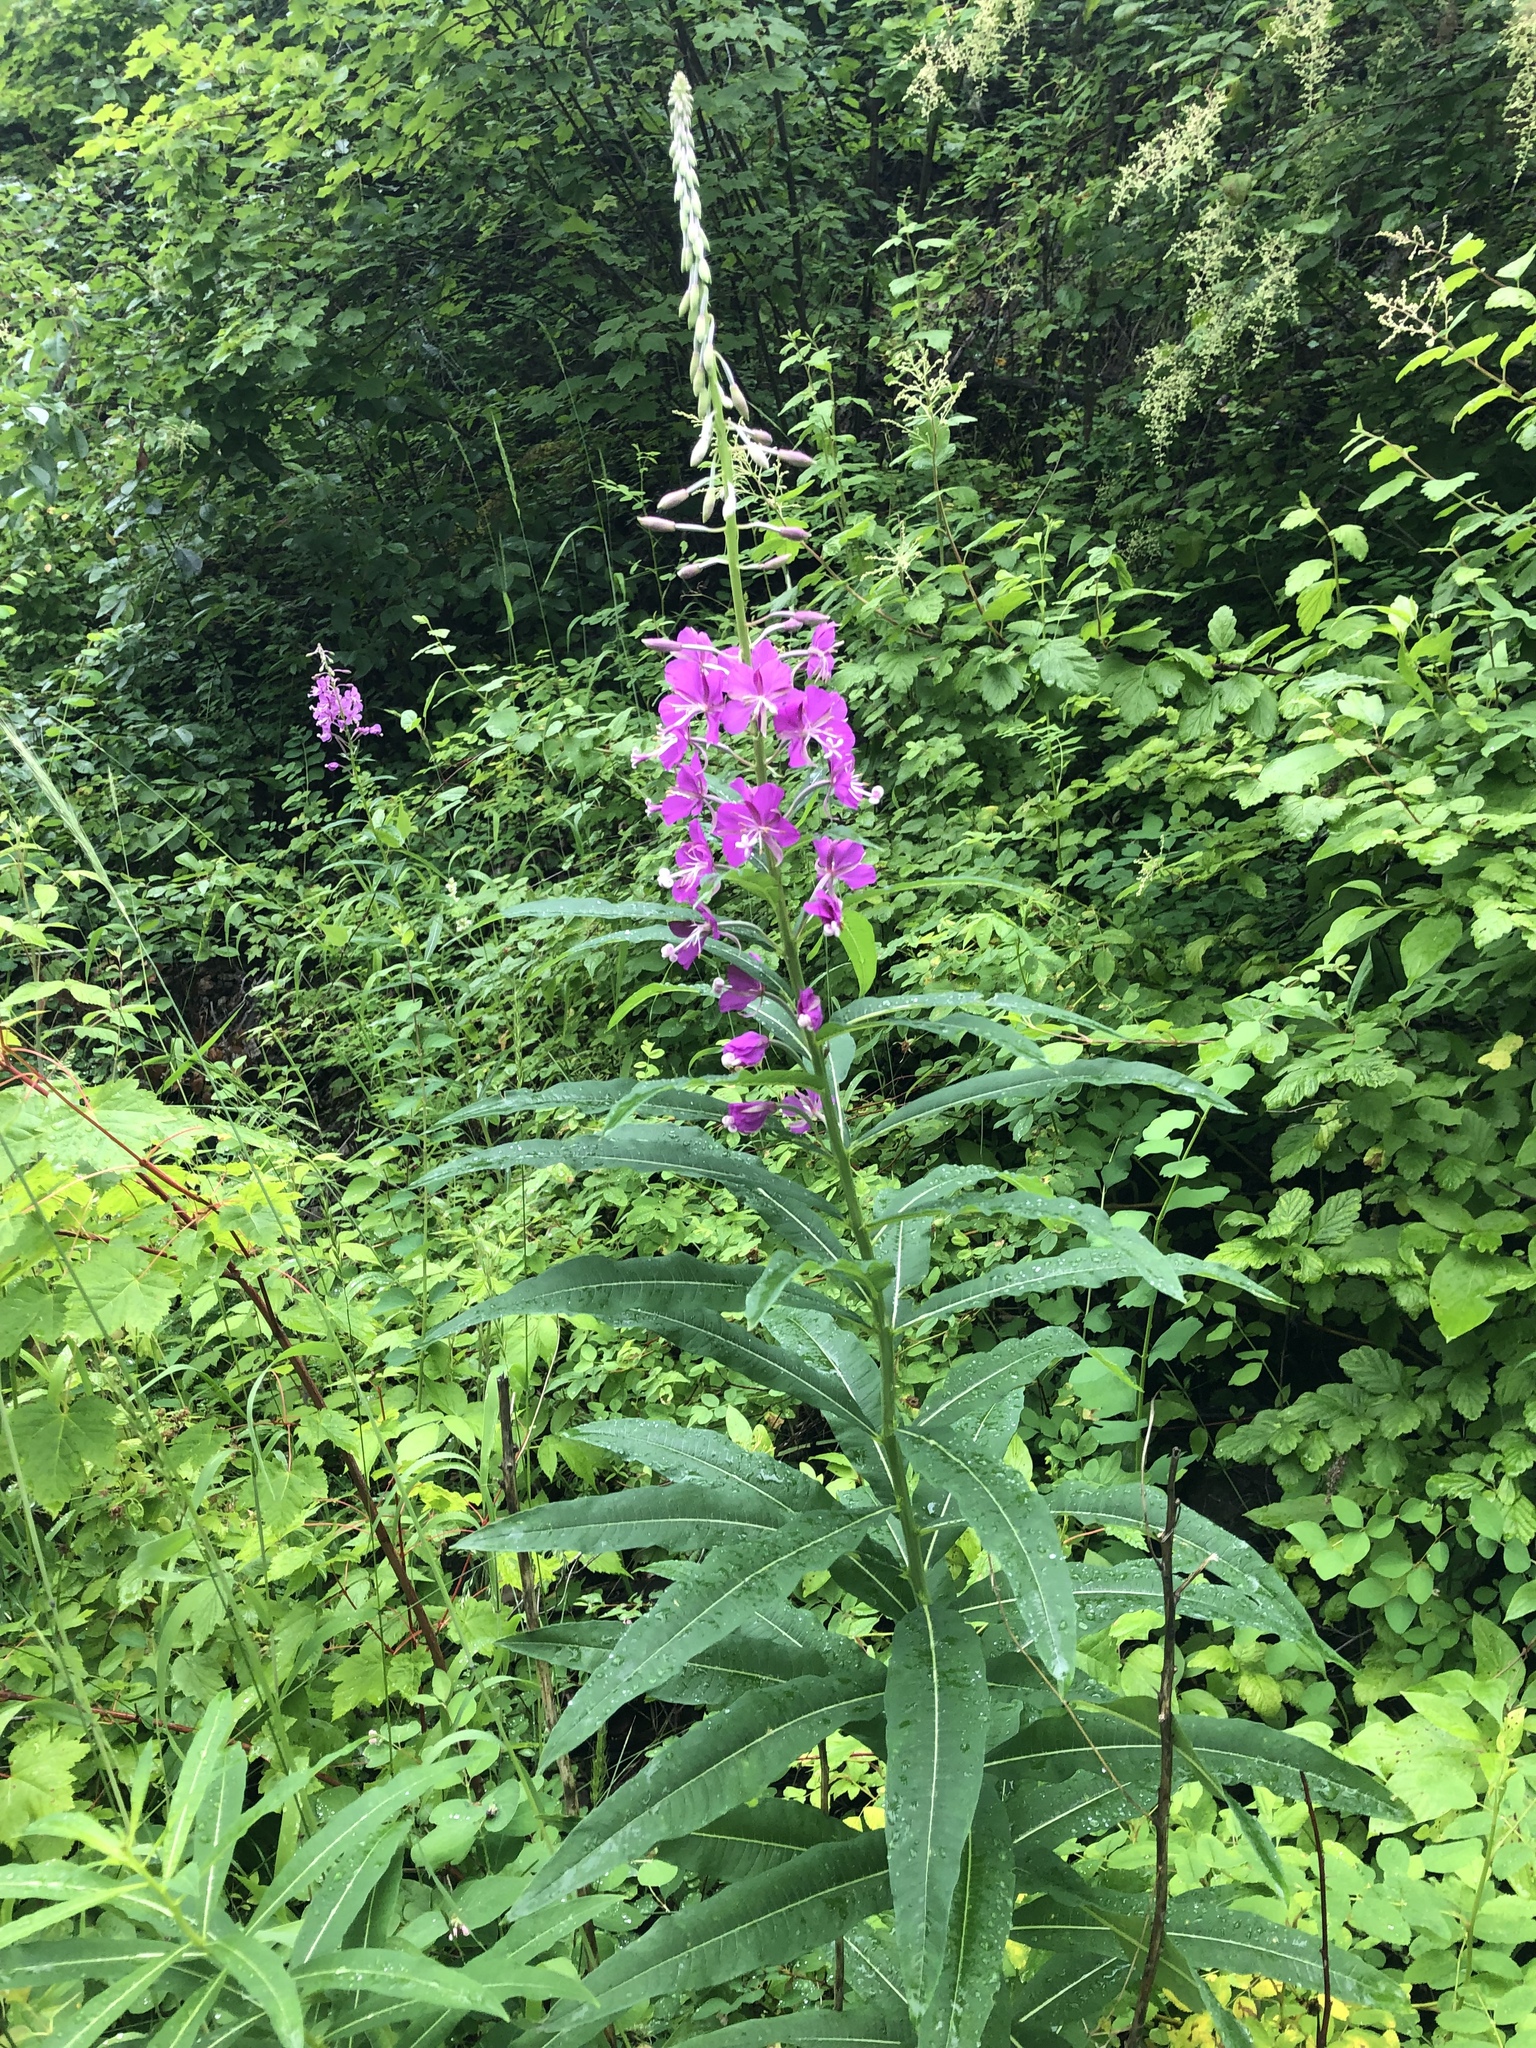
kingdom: Plantae
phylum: Tracheophyta
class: Magnoliopsida
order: Myrtales
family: Onagraceae
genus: Chamaenerion
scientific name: Chamaenerion angustifolium
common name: Fireweed
